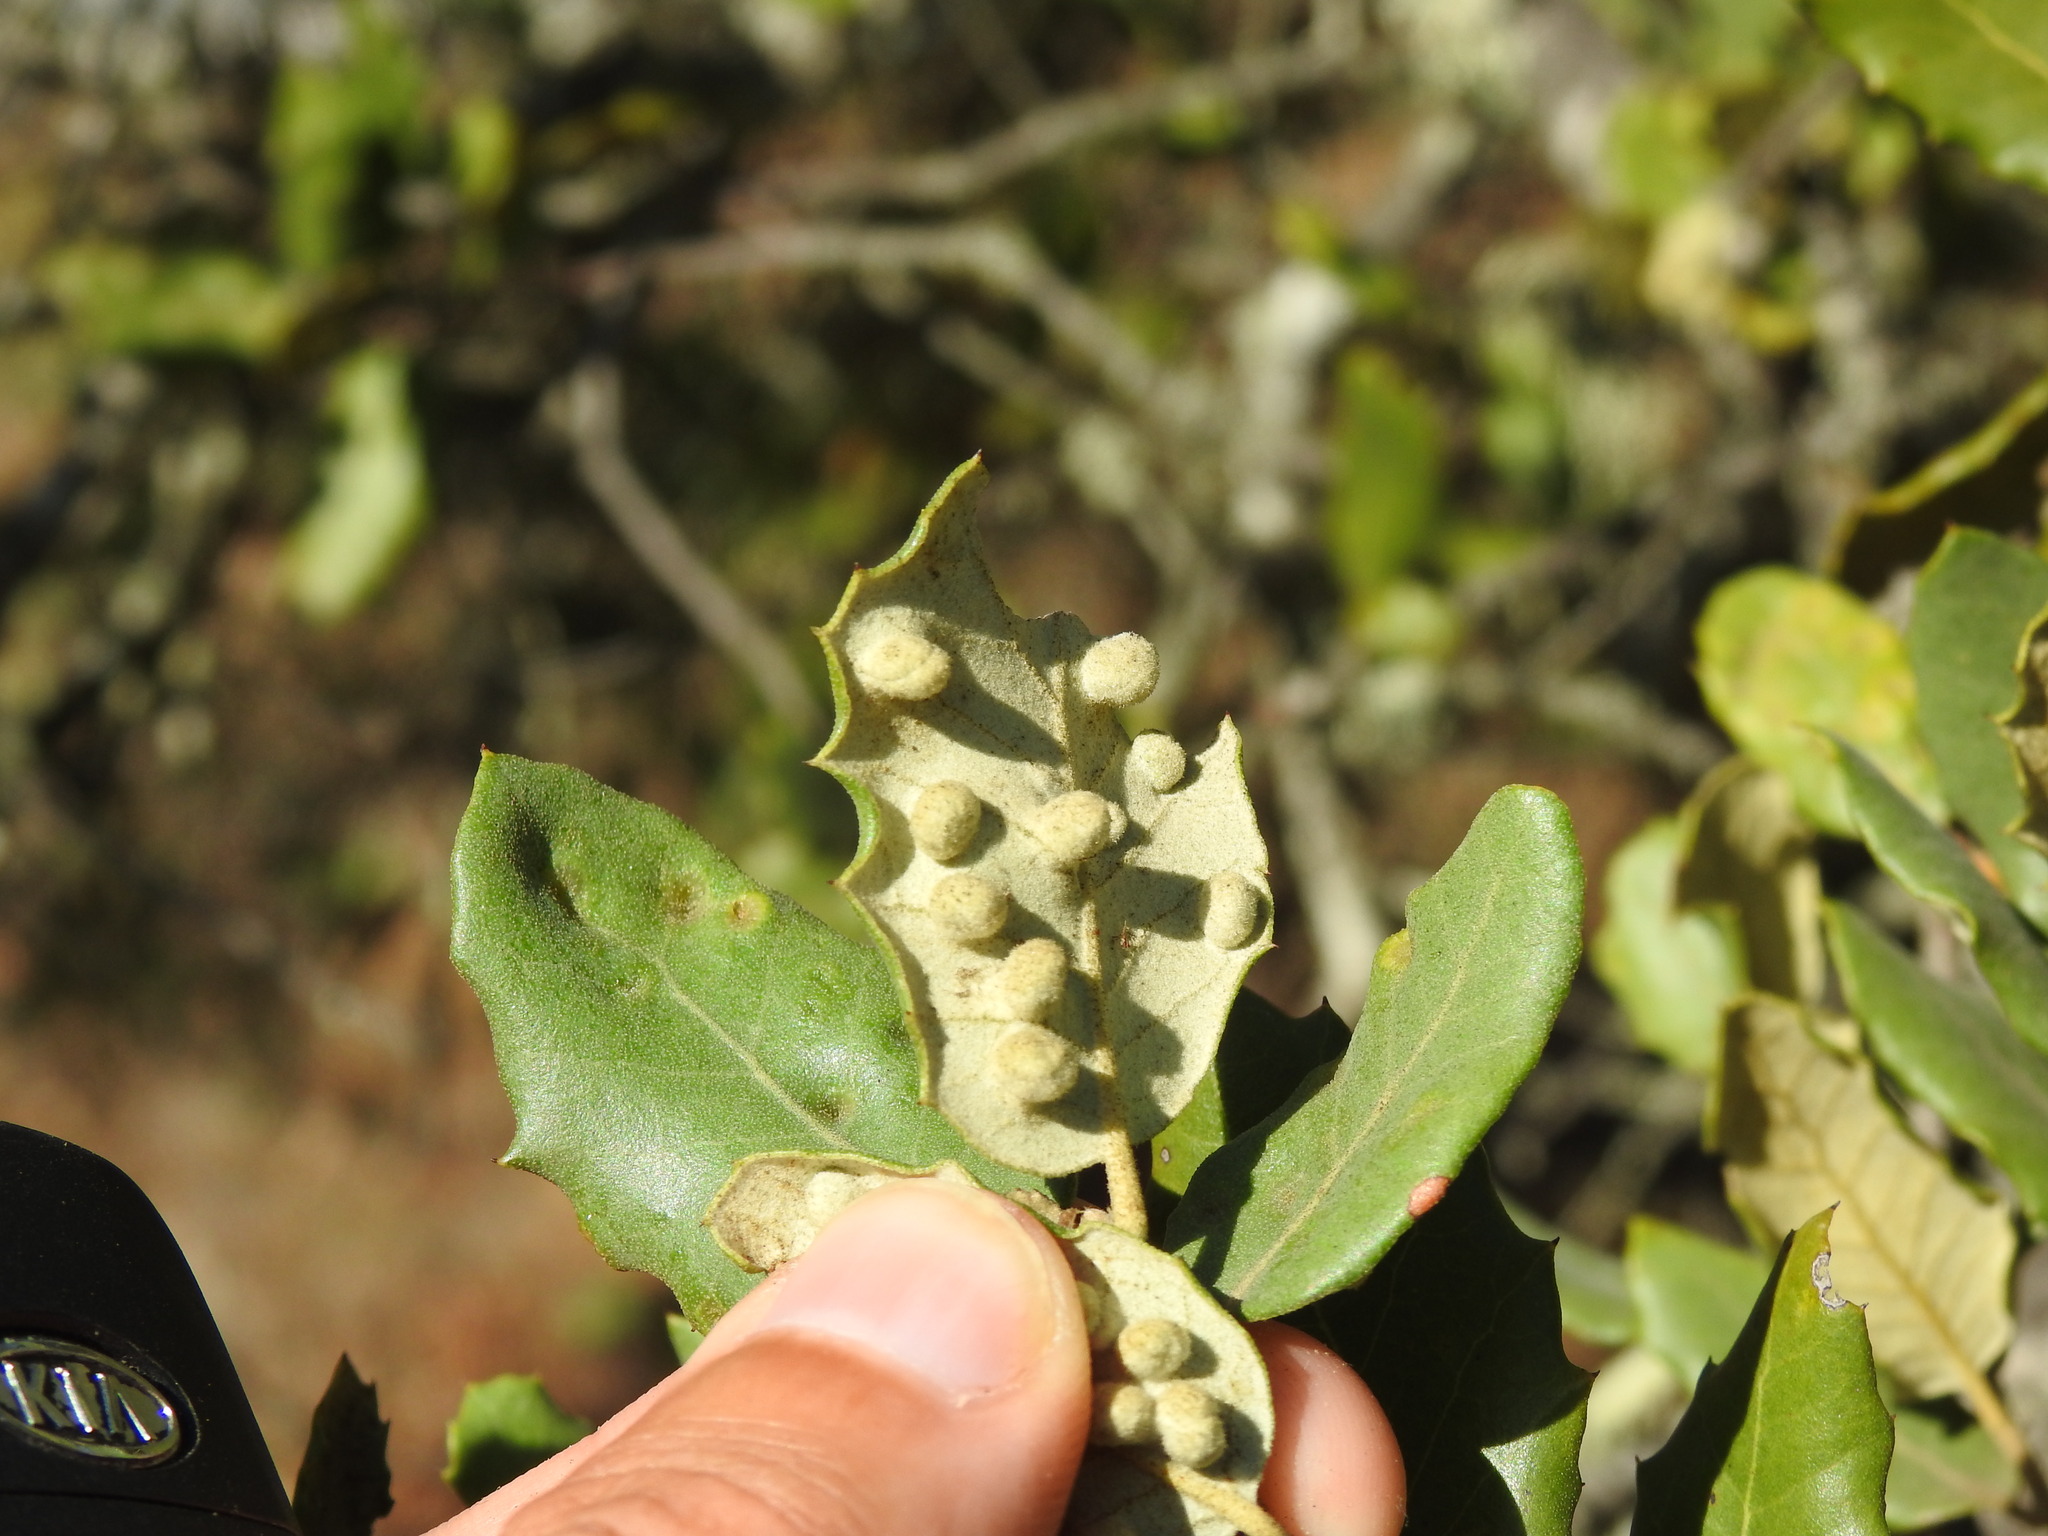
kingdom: Animalia
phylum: Arthropoda
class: Insecta
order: Diptera
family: Cecidomyiidae
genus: Dryomyia
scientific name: Dryomyia lichtensteinii
